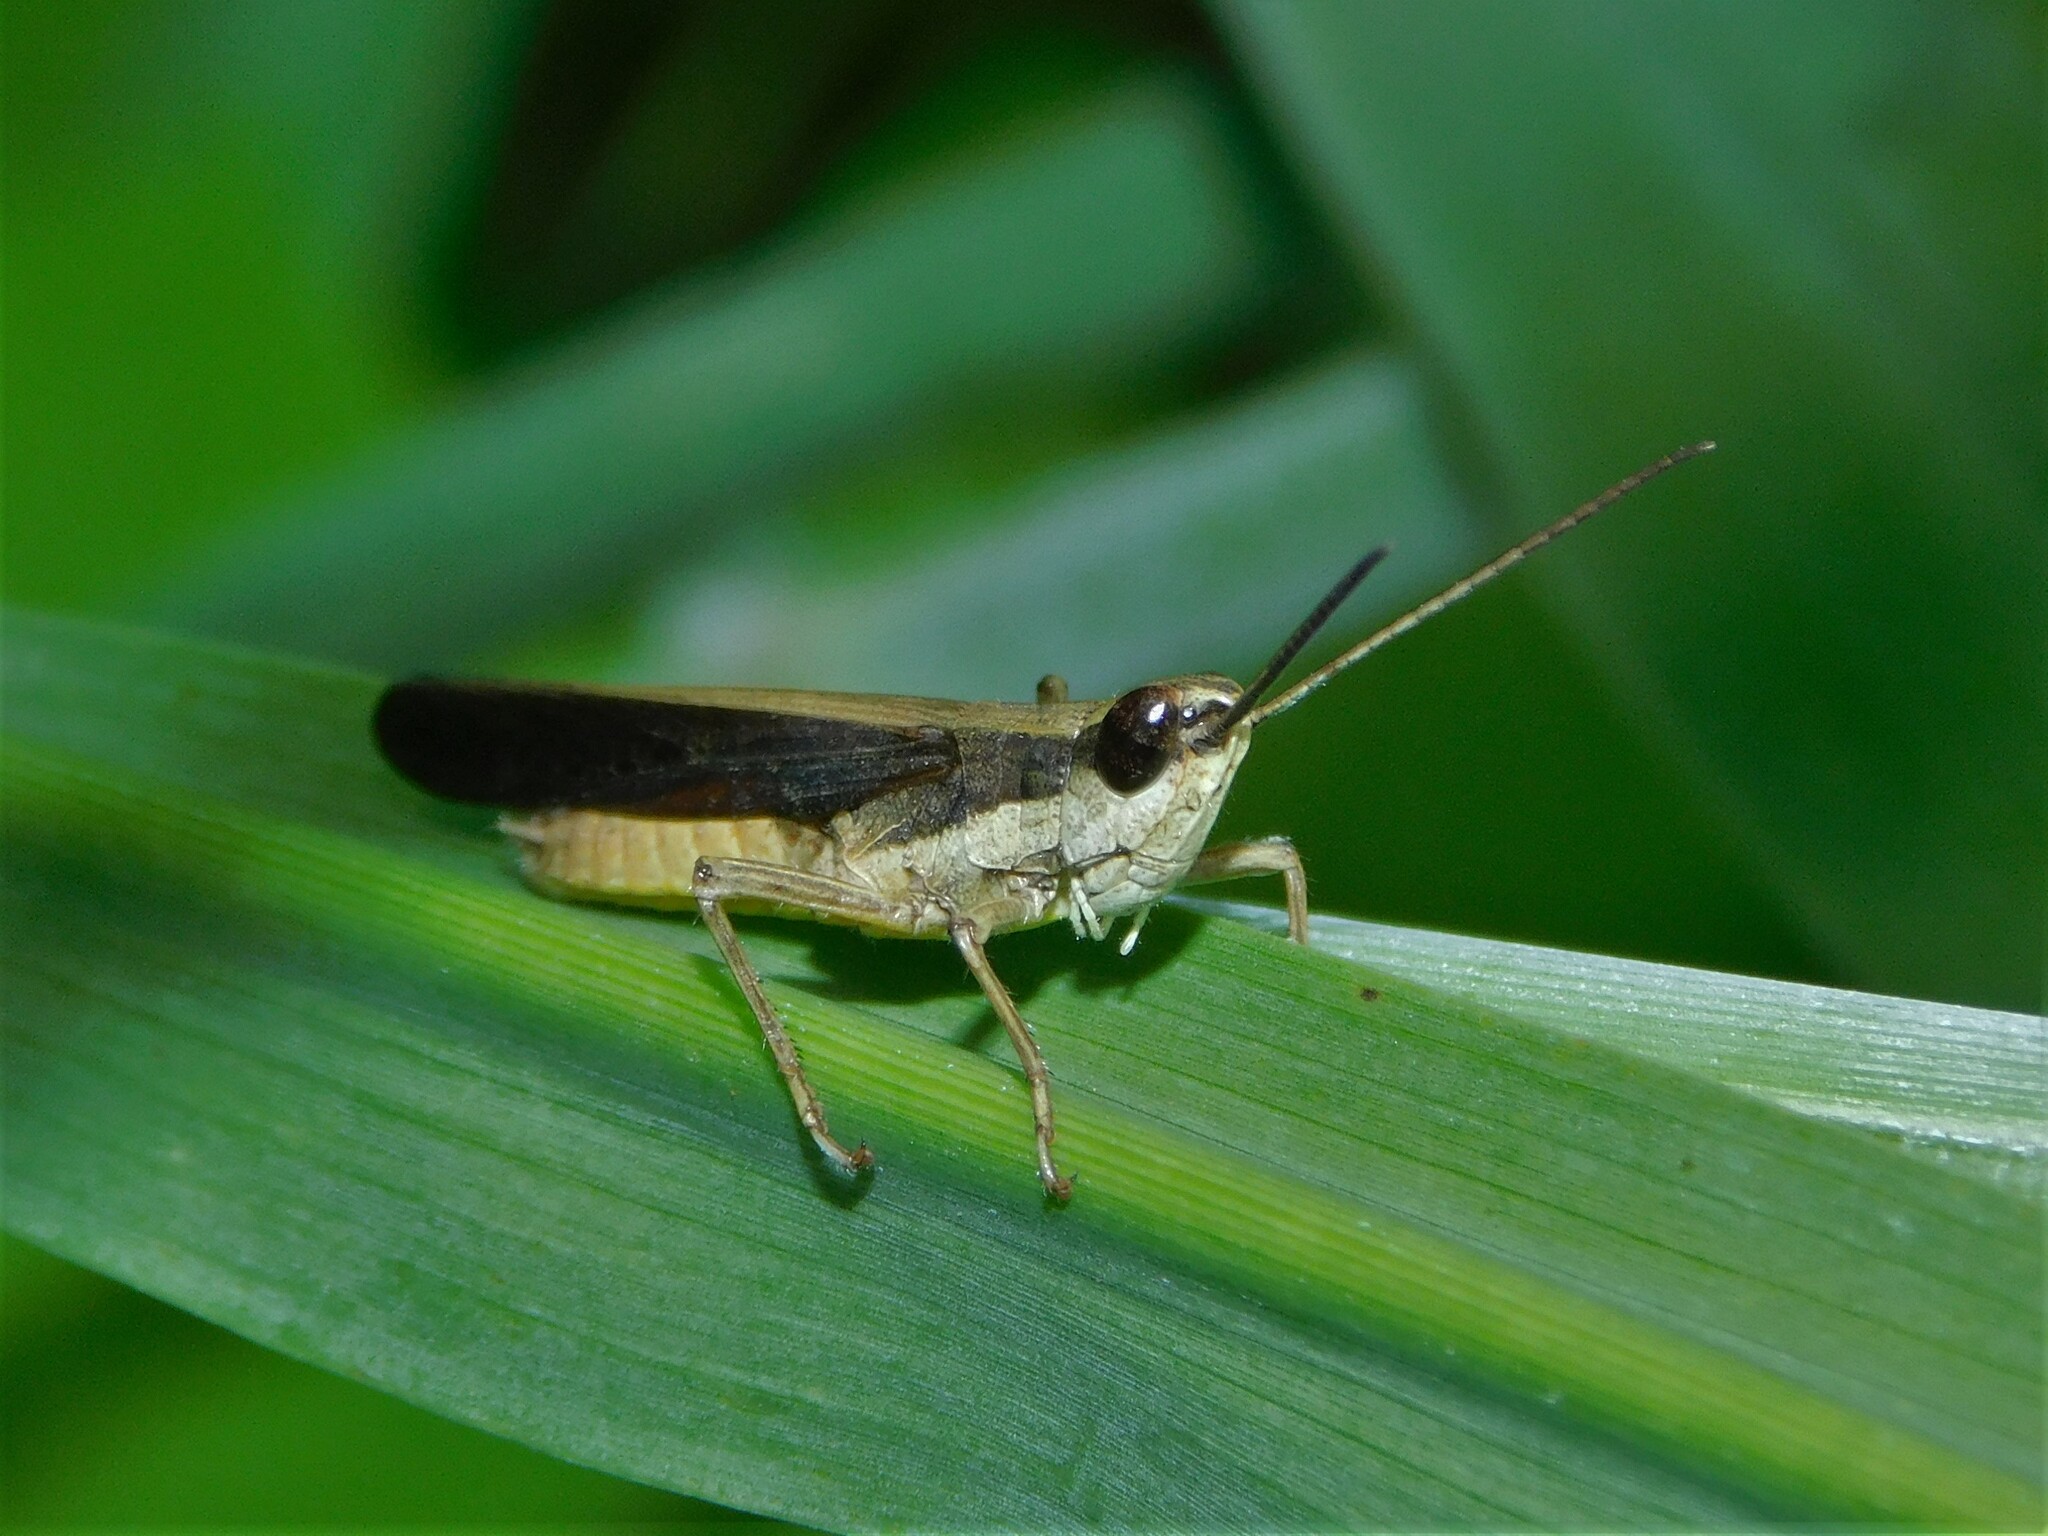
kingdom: Animalia
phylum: Arthropoda
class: Insecta
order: Orthoptera
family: Acrididae
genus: Coryphosima
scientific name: Coryphosima stenoptera
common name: African common grasshopper
